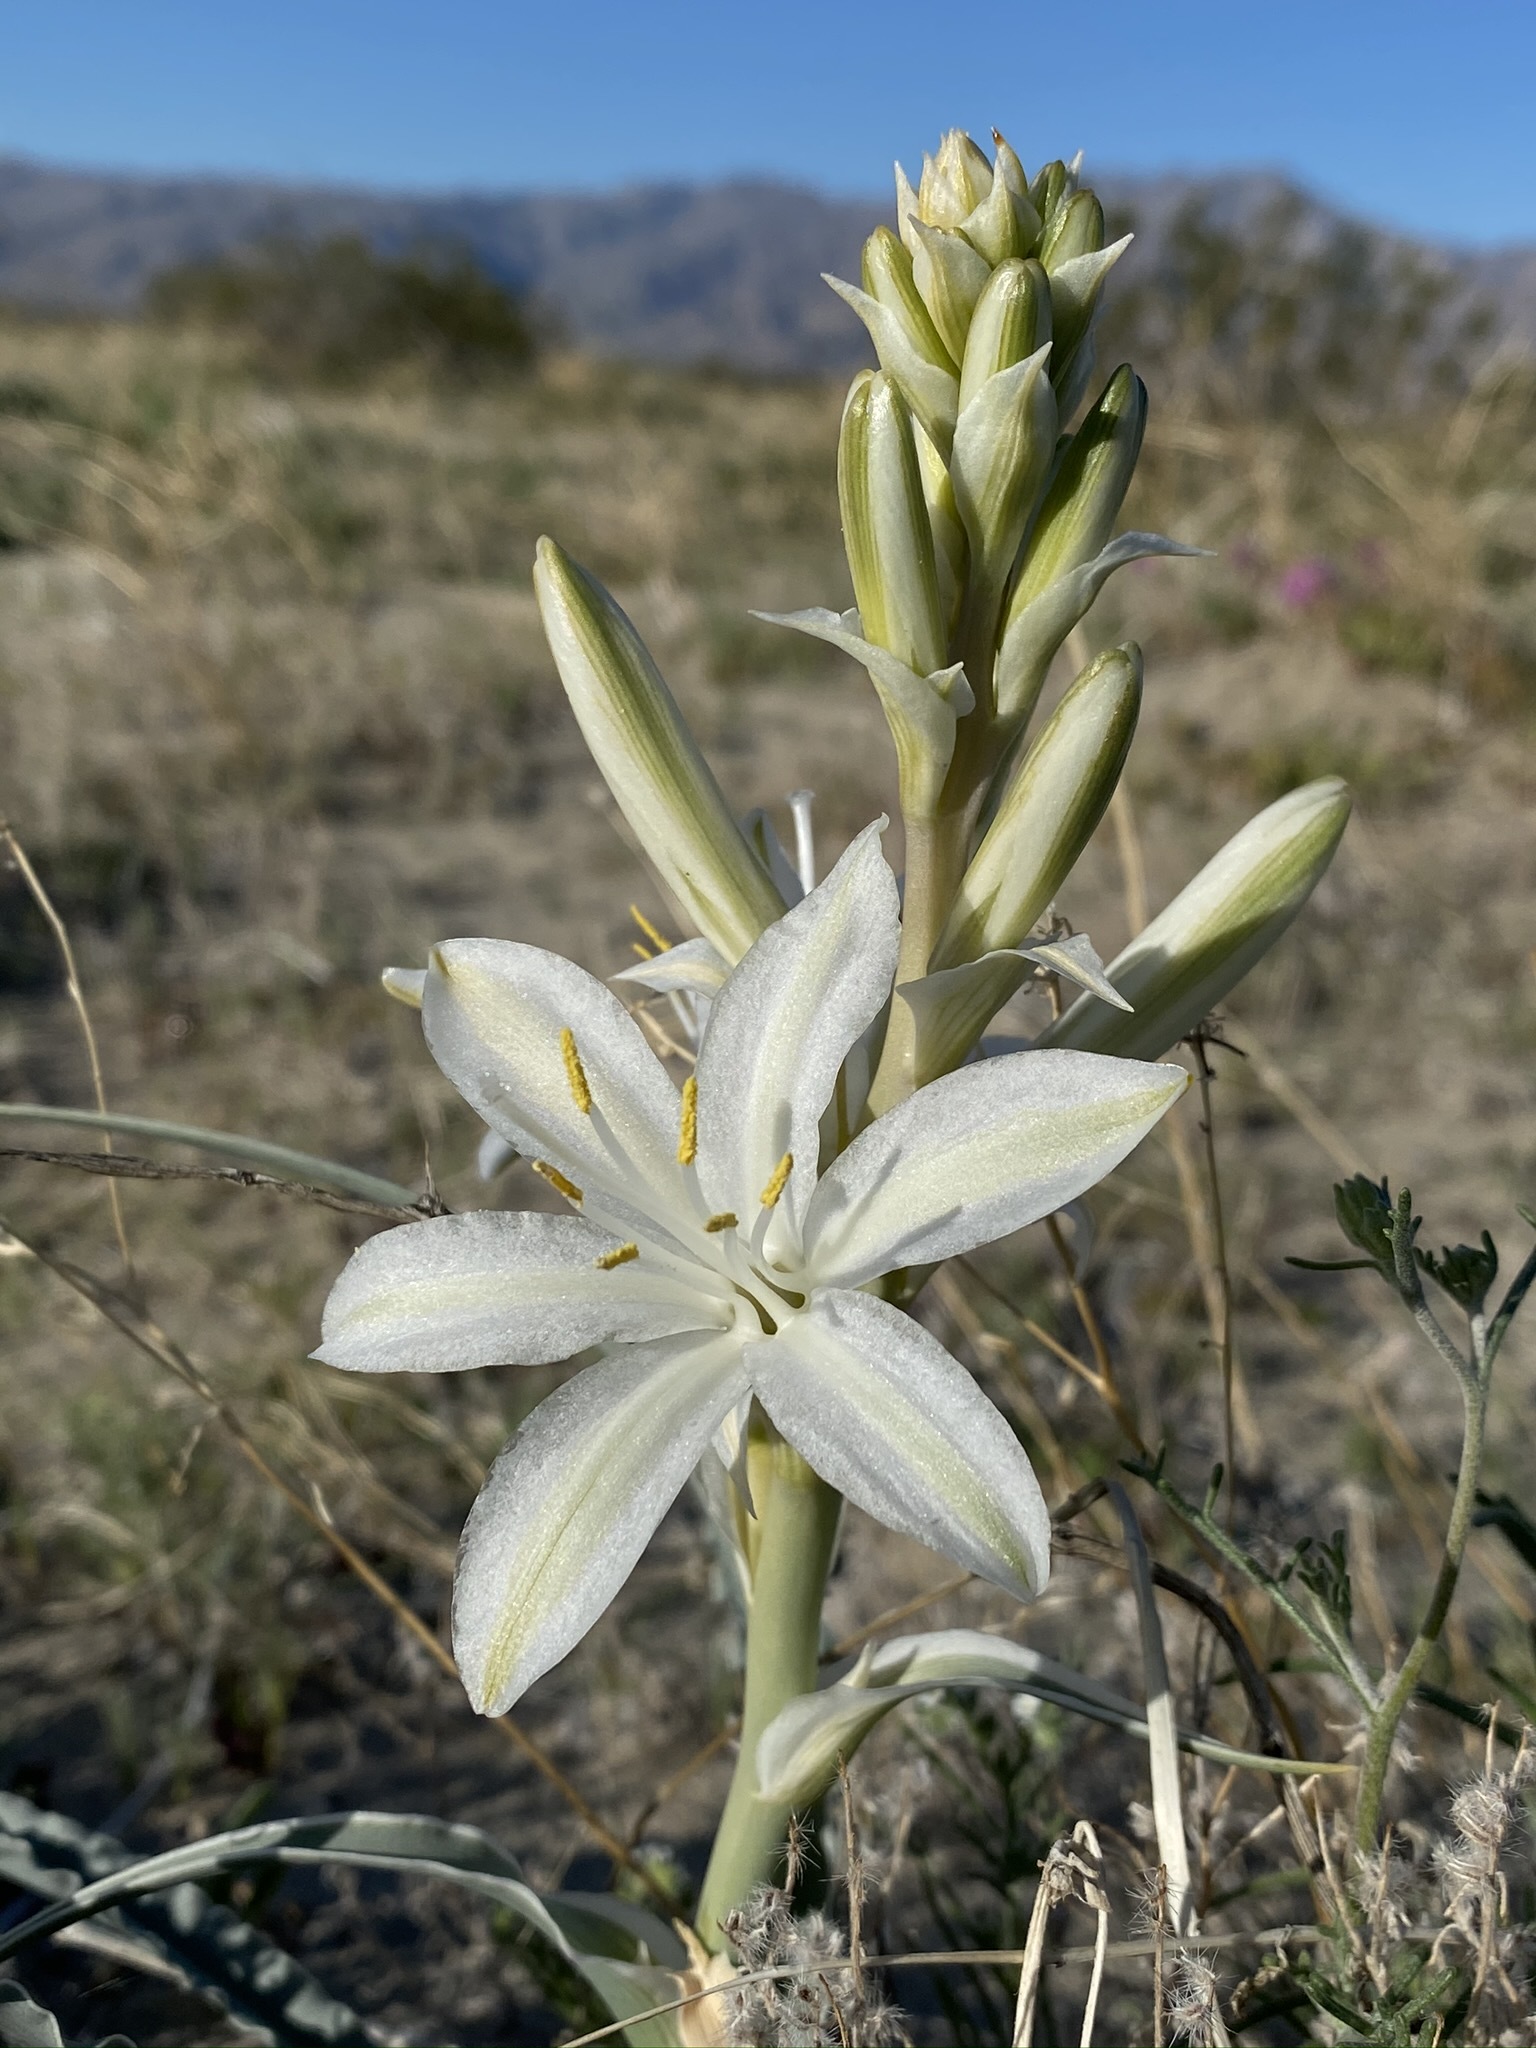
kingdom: Plantae
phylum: Tracheophyta
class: Liliopsida
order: Asparagales
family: Asparagaceae
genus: Hesperocallis
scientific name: Hesperocallis undulata
